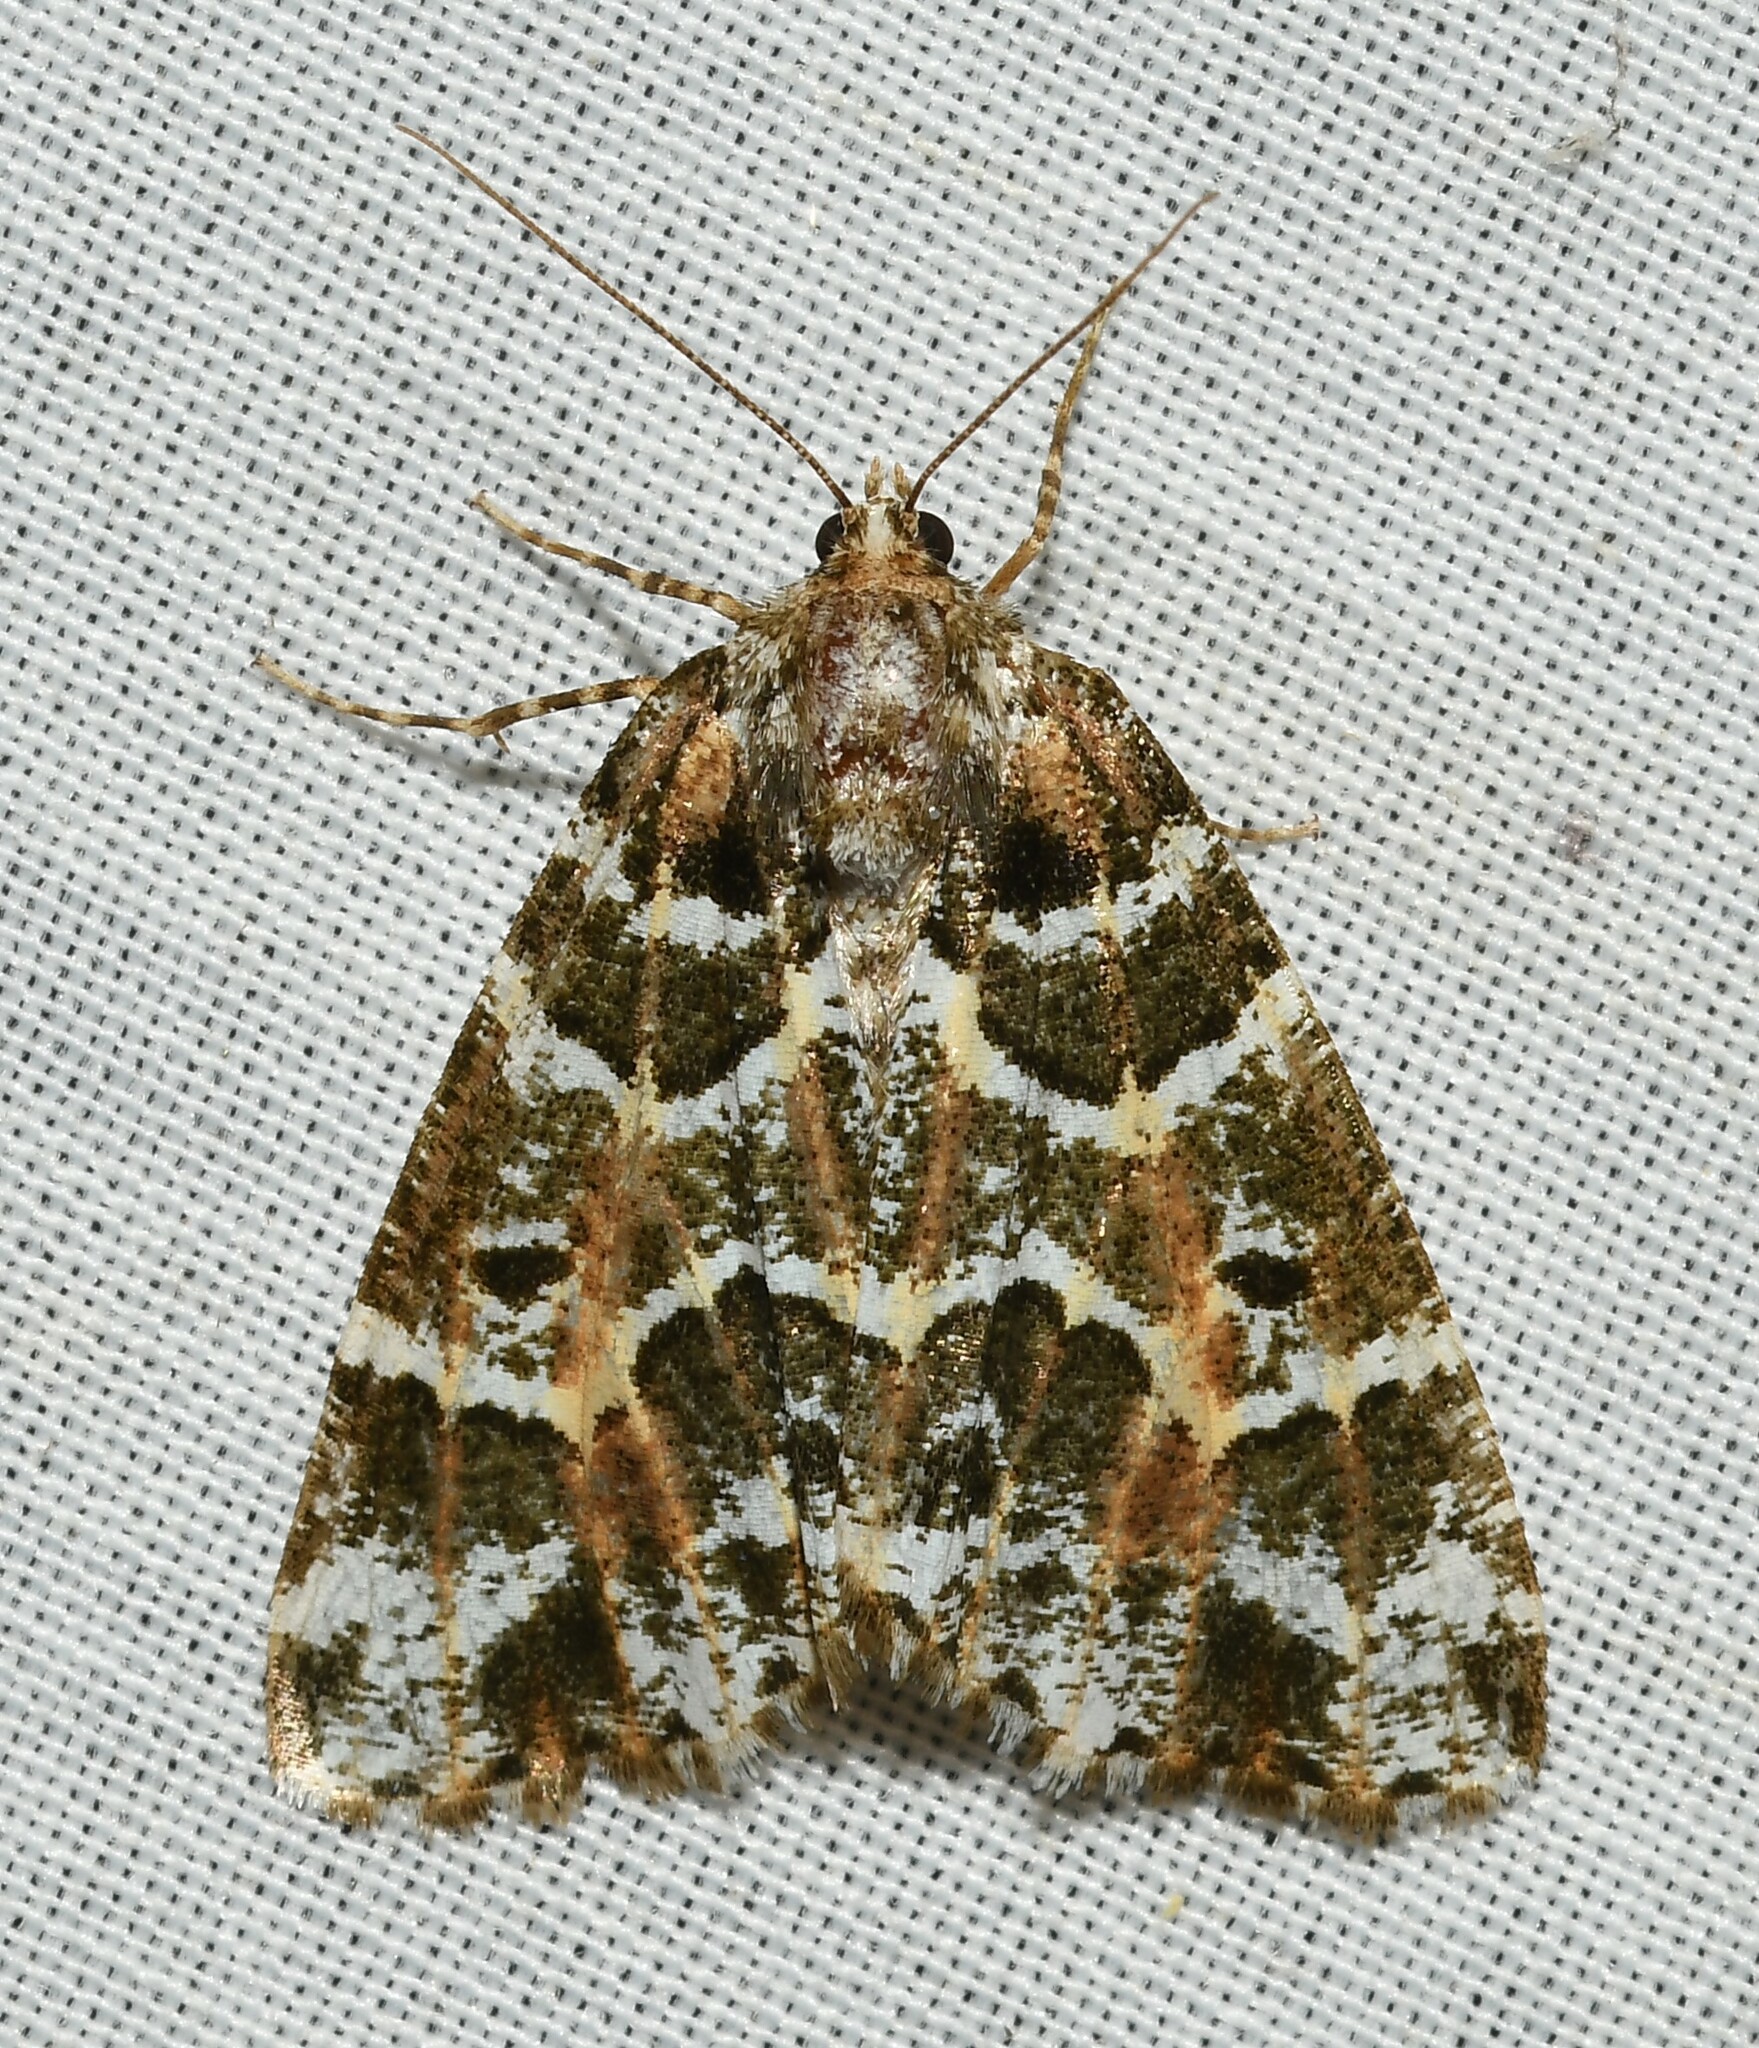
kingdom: Animalia
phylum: Arthropoda
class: Insecta
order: Lepidoptera
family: Geometridae
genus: Cargolia
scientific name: Cargolia
